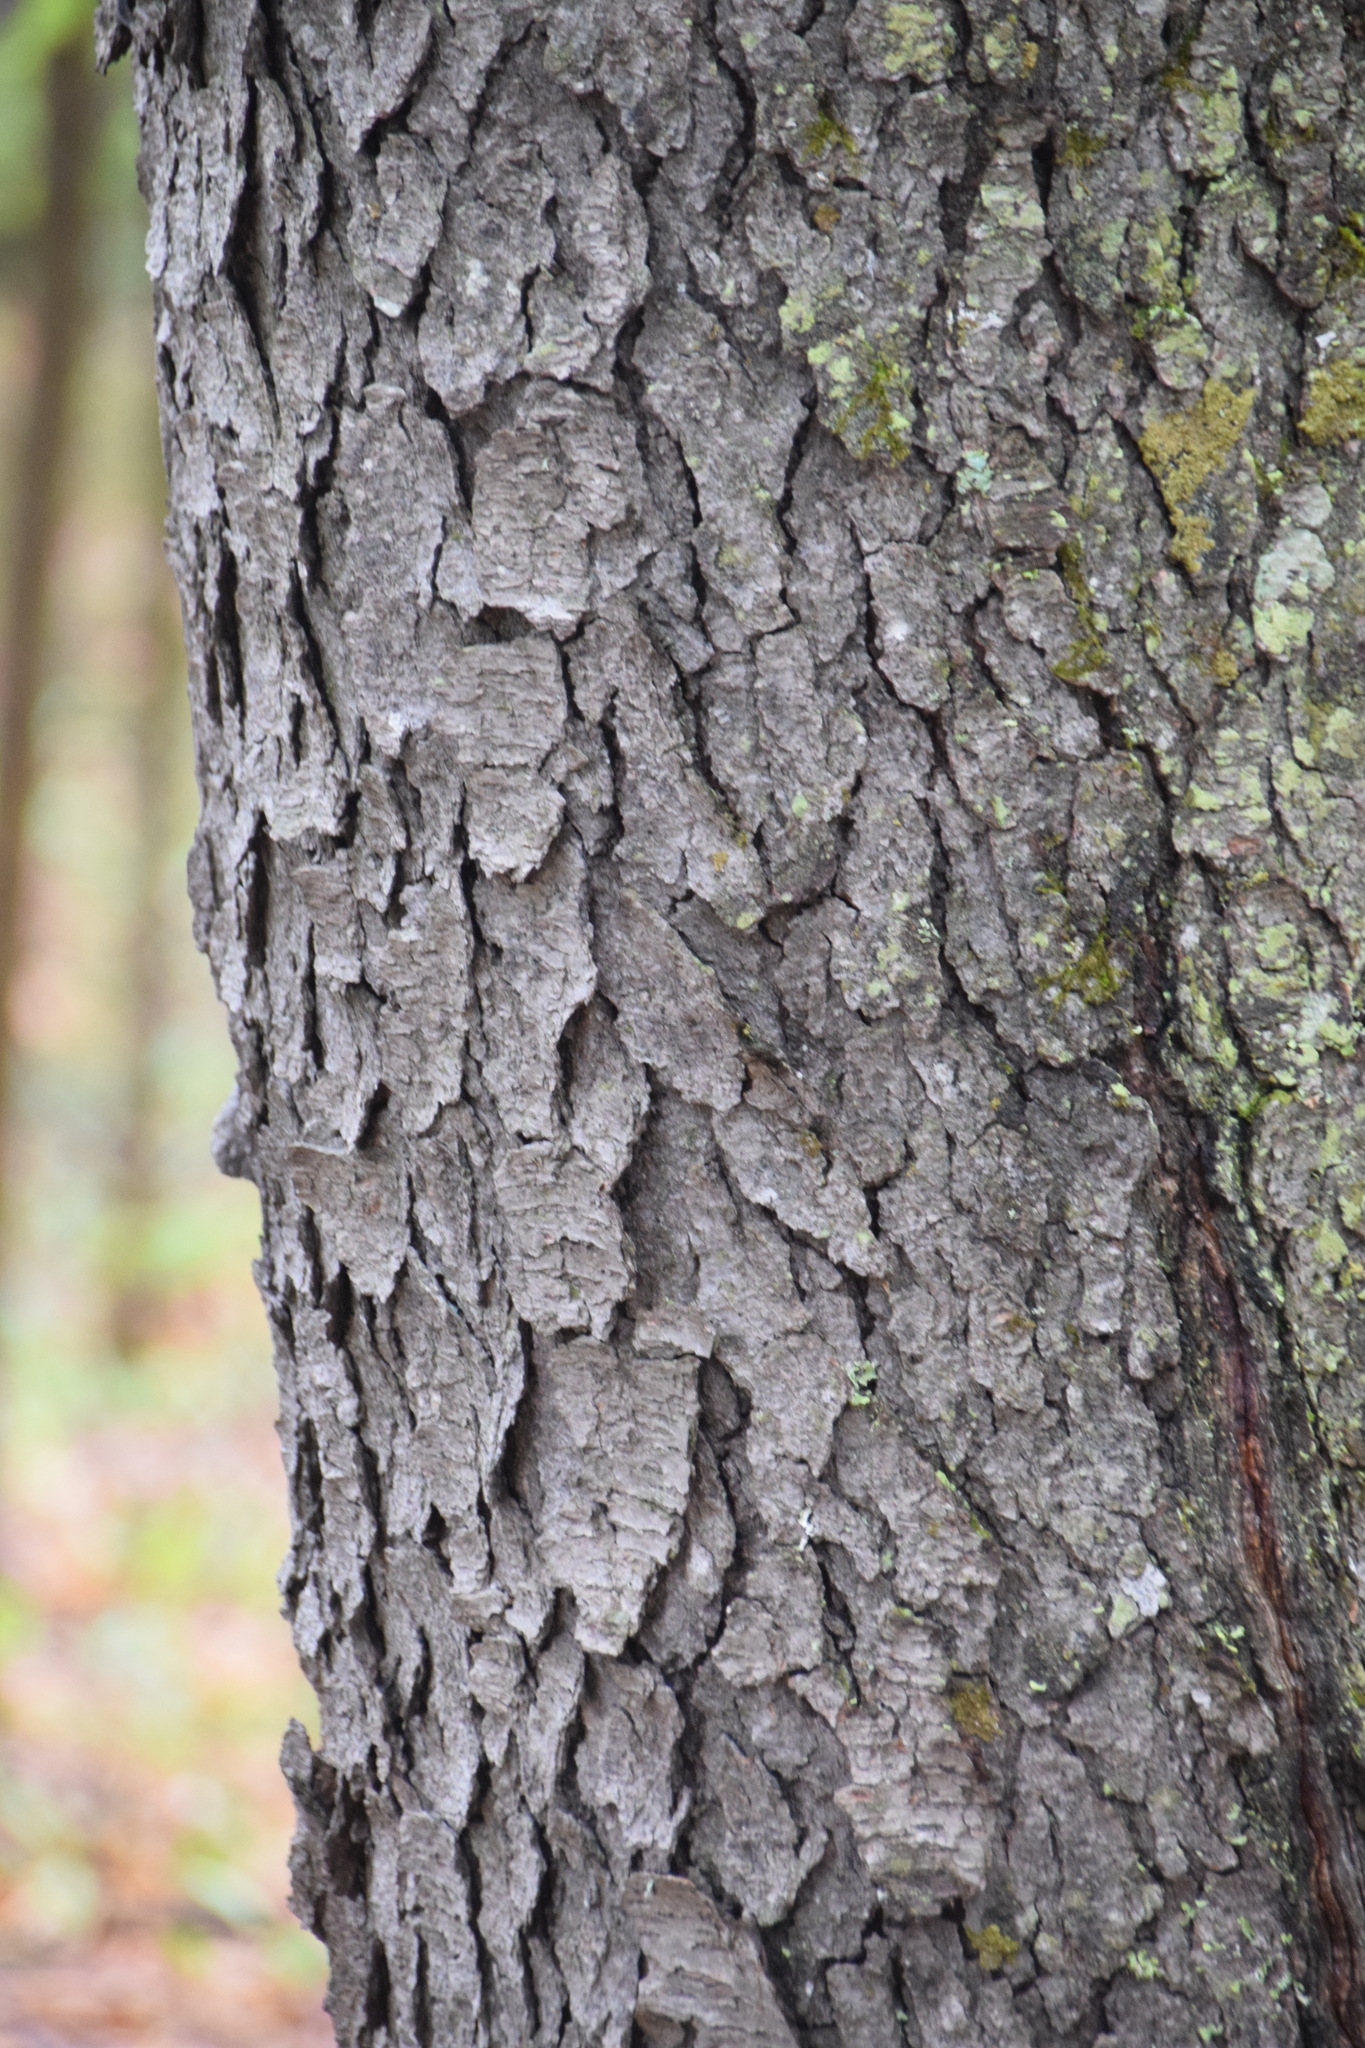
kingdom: Plantae
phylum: Tracheophyta
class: Magnoliopsida
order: Rosales
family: Rosaceae
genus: Prunus
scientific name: Prunus serotina
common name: Black cherry
